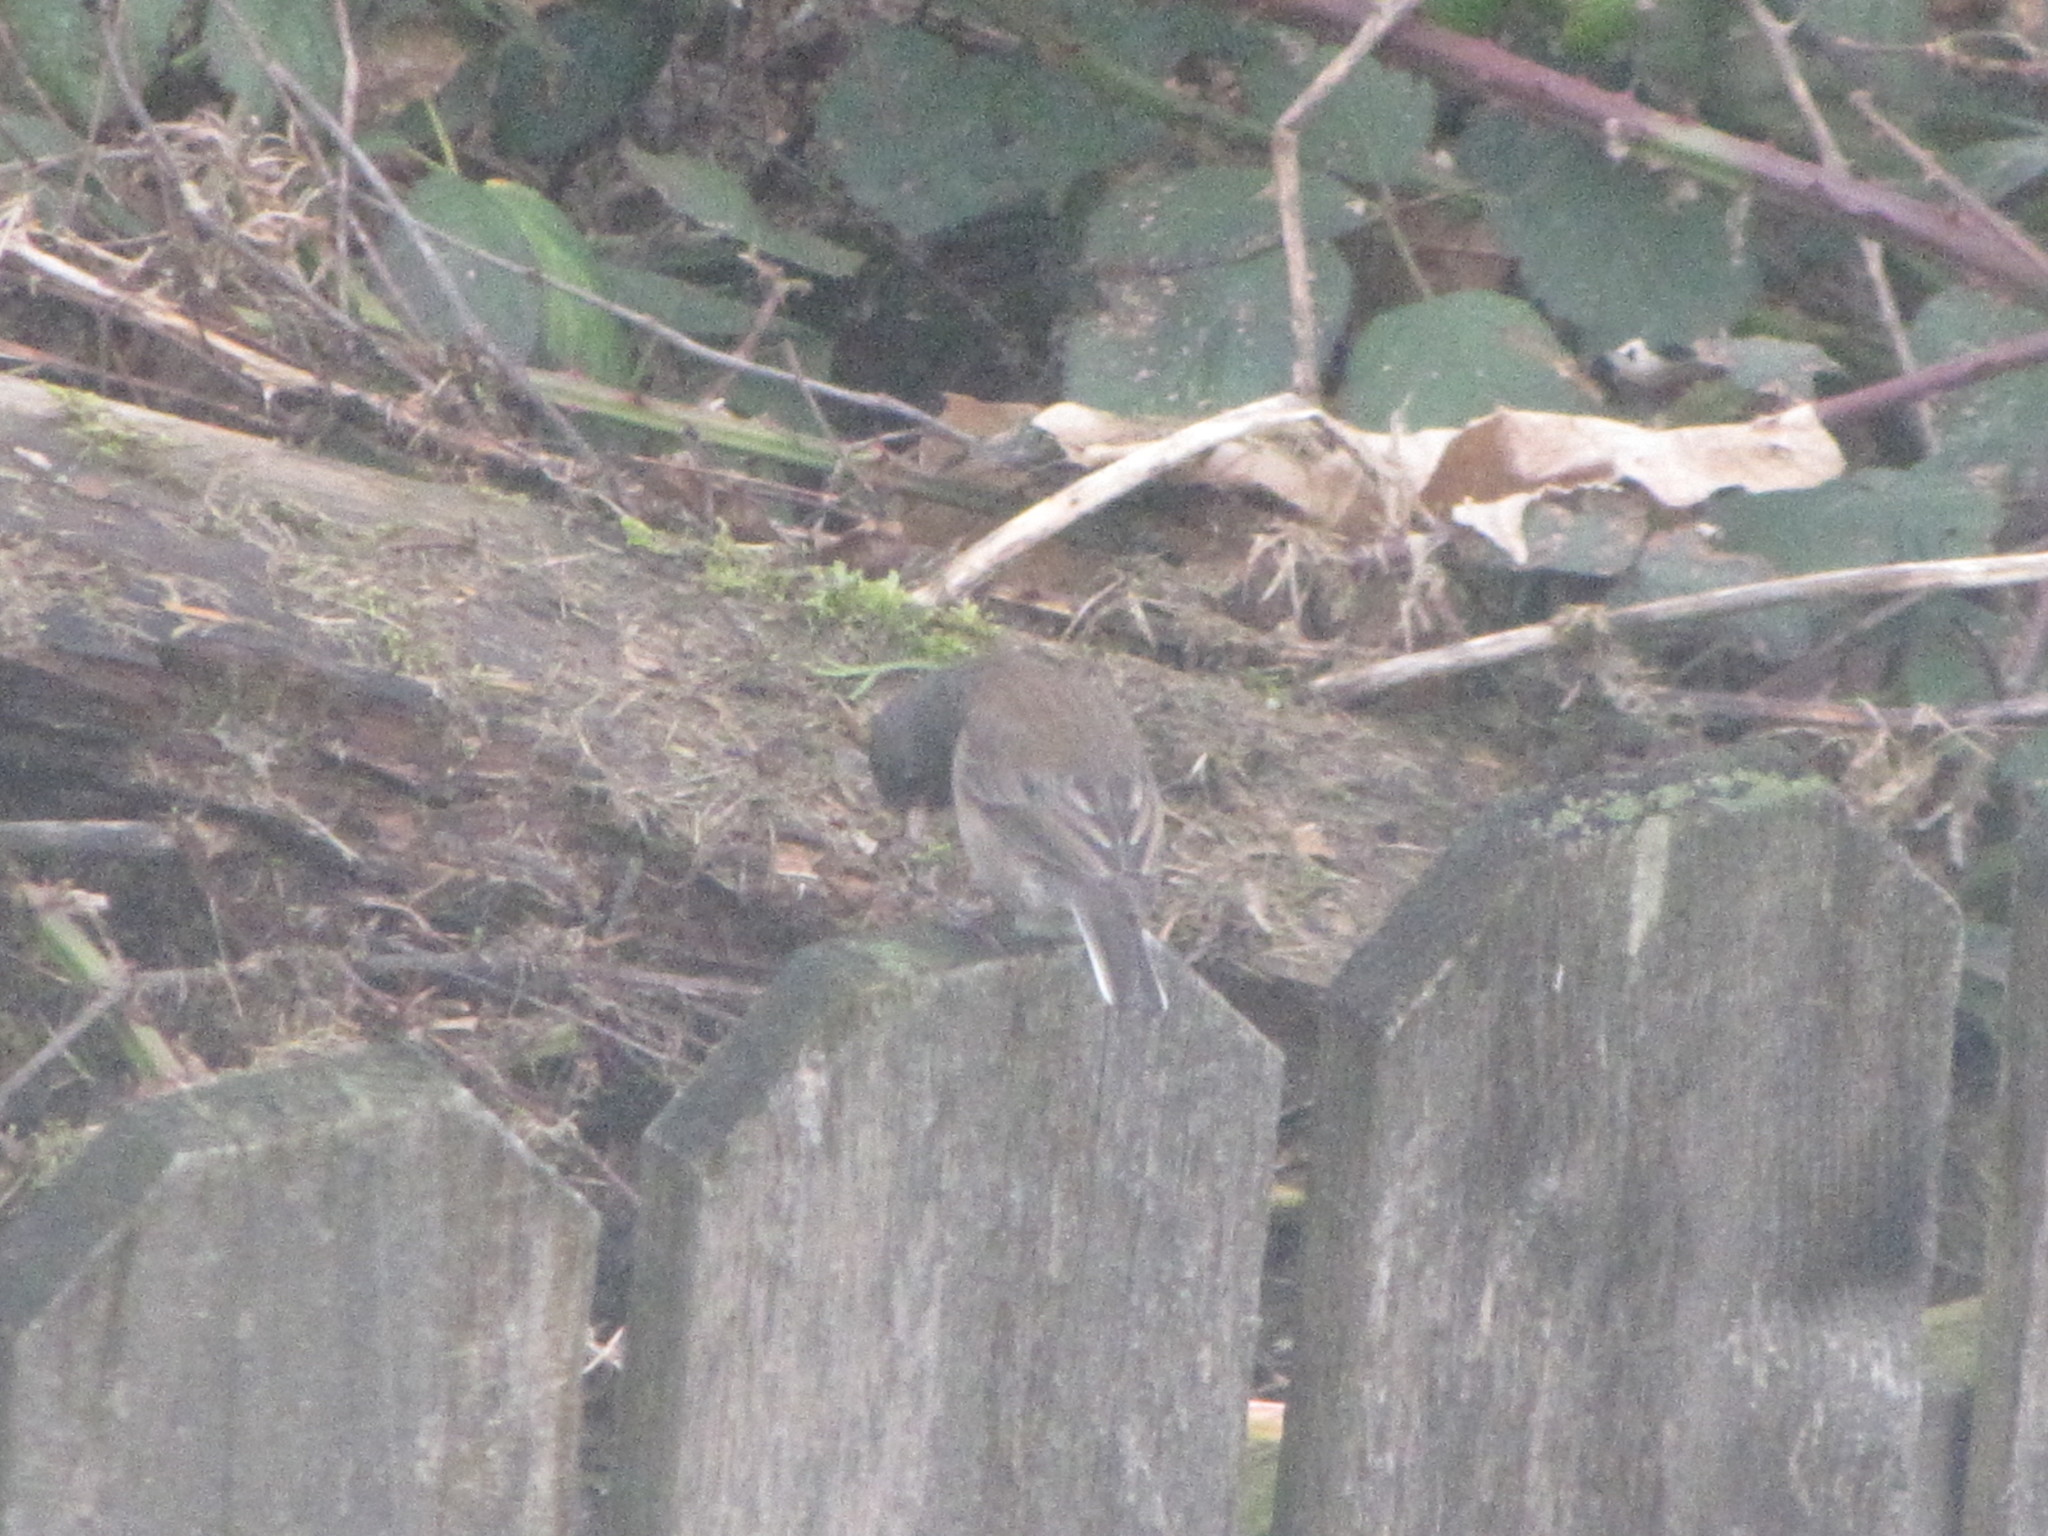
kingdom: Animalia
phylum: Chordata
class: Aves
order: Passeriformes
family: Passerellidae
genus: Junco
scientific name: Junco hyemalis
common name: Dark-eyed junco
